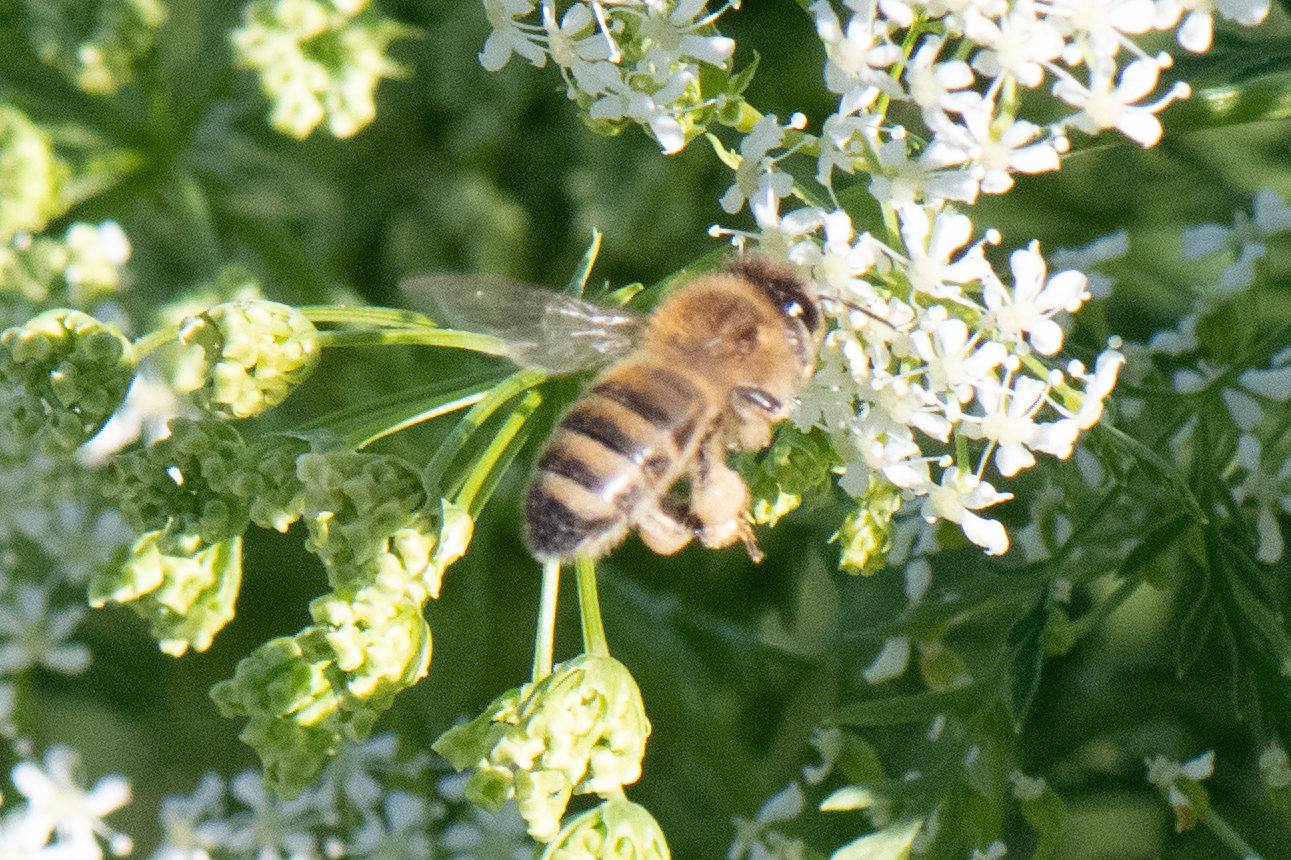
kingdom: Animalia
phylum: Arthropoda
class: Insecta
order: Hymenoptera
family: Apidae
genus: Apis
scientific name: Apis mellifera
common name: Honey bee
